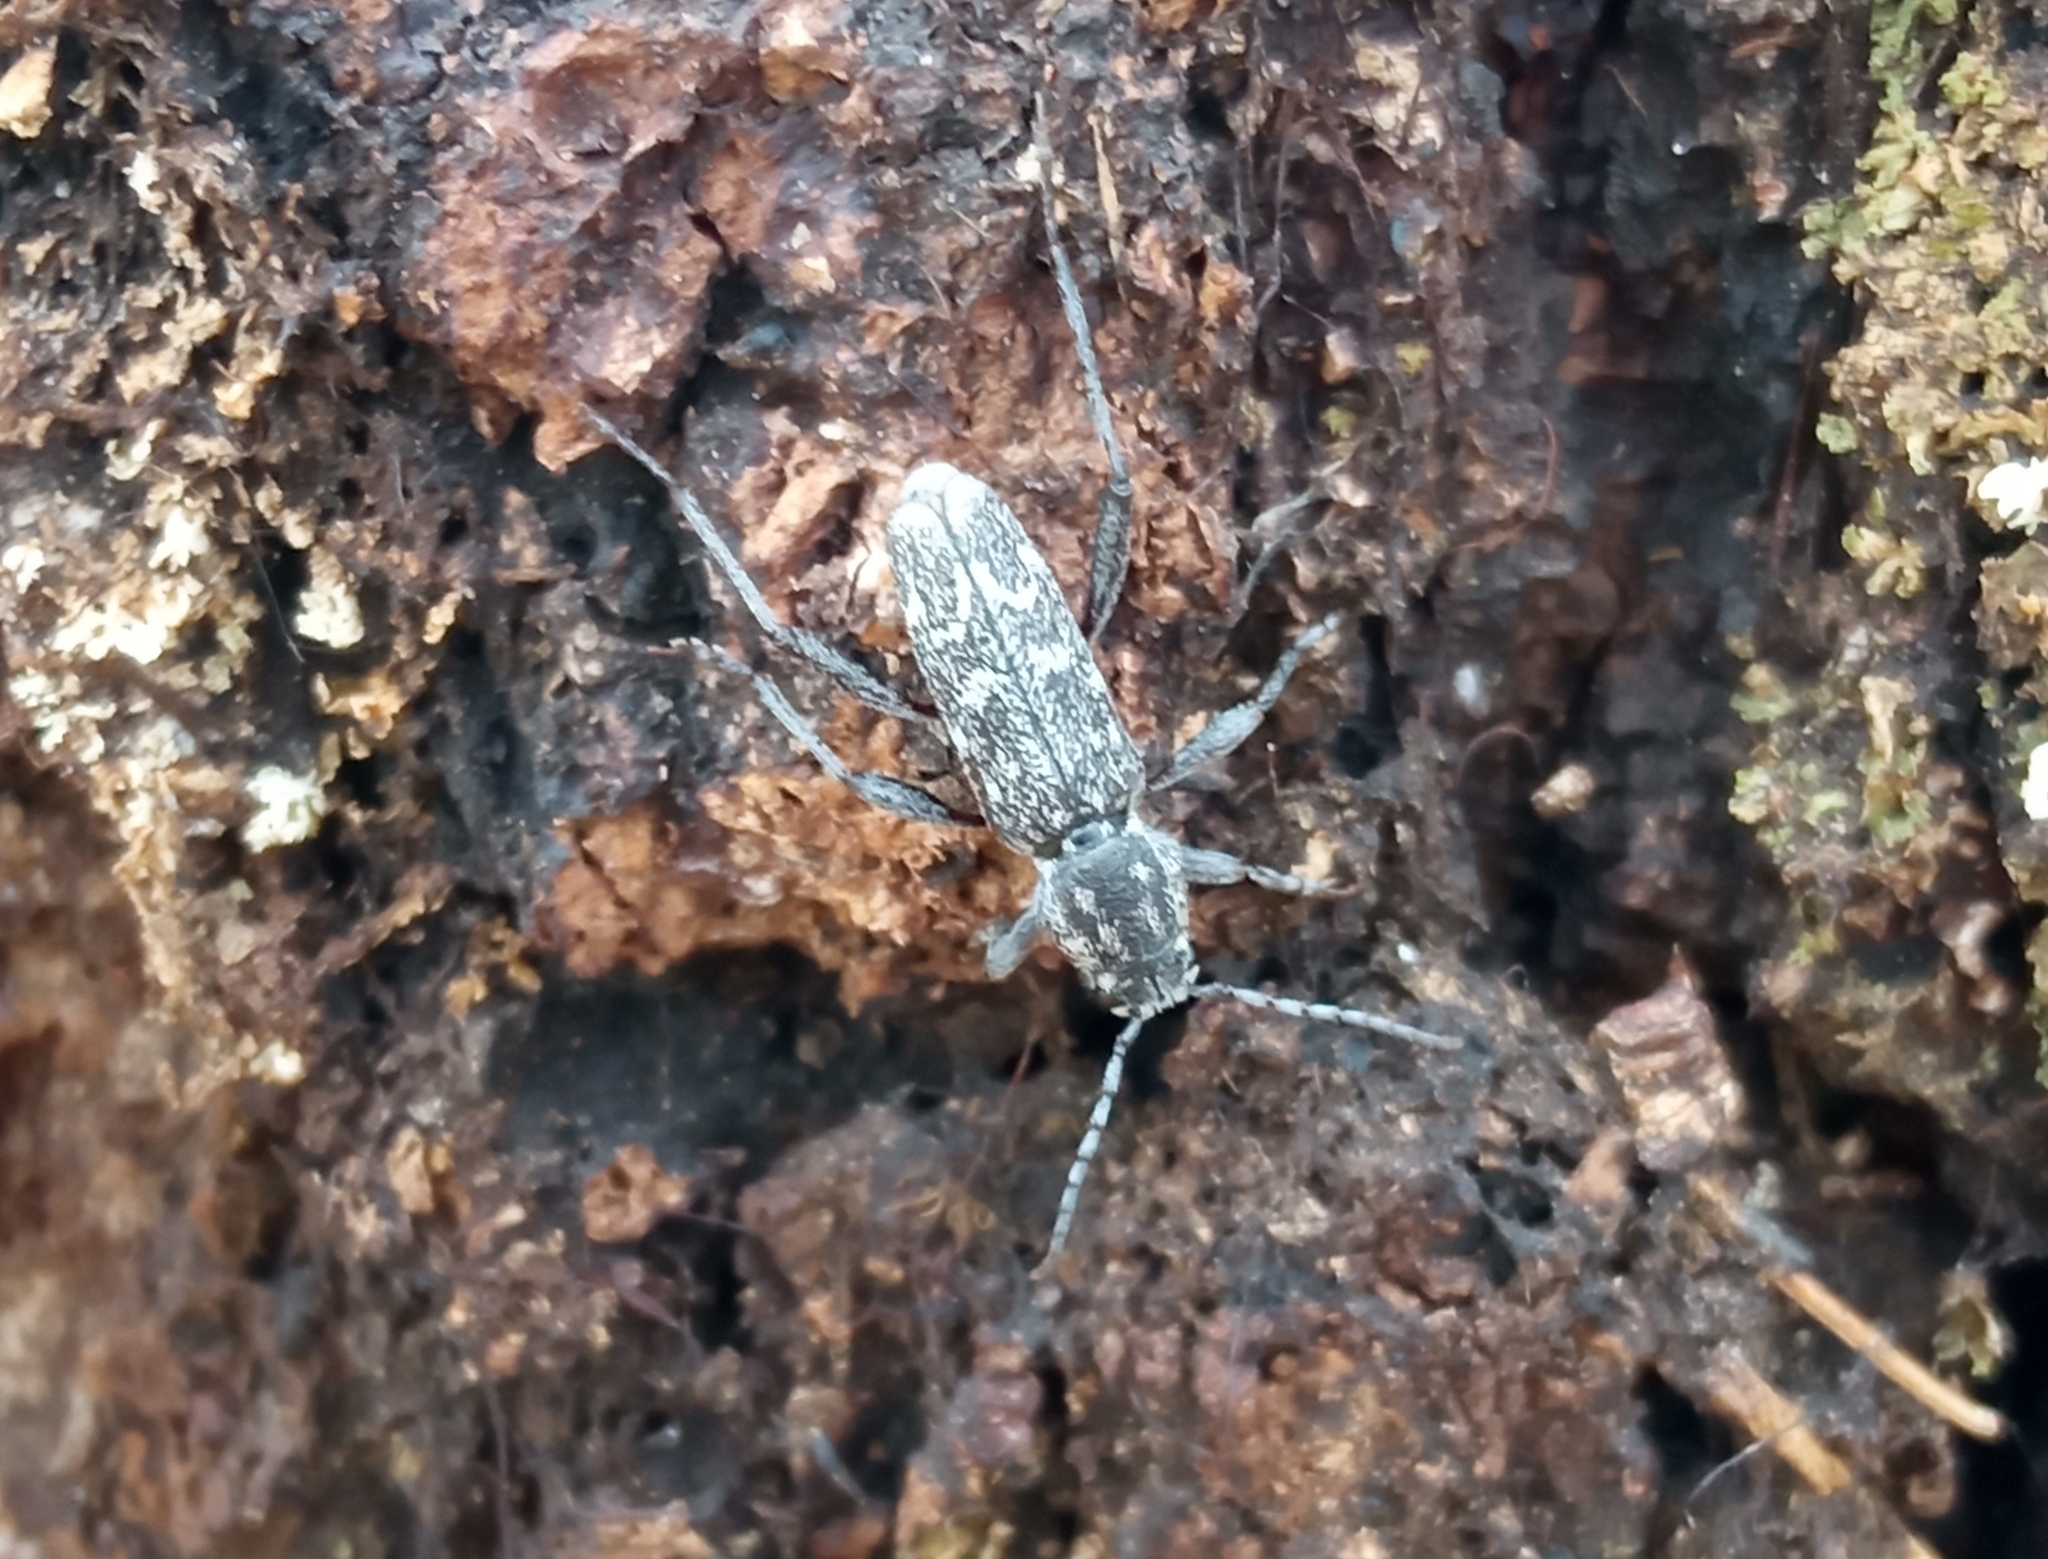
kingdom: Animalia
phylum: Arthropoda
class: Insecta
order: Coleoptera
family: Cerambycidae
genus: Xylotrechus
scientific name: Xylotrechus rusticus
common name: Grey tiger long-horned beetle
